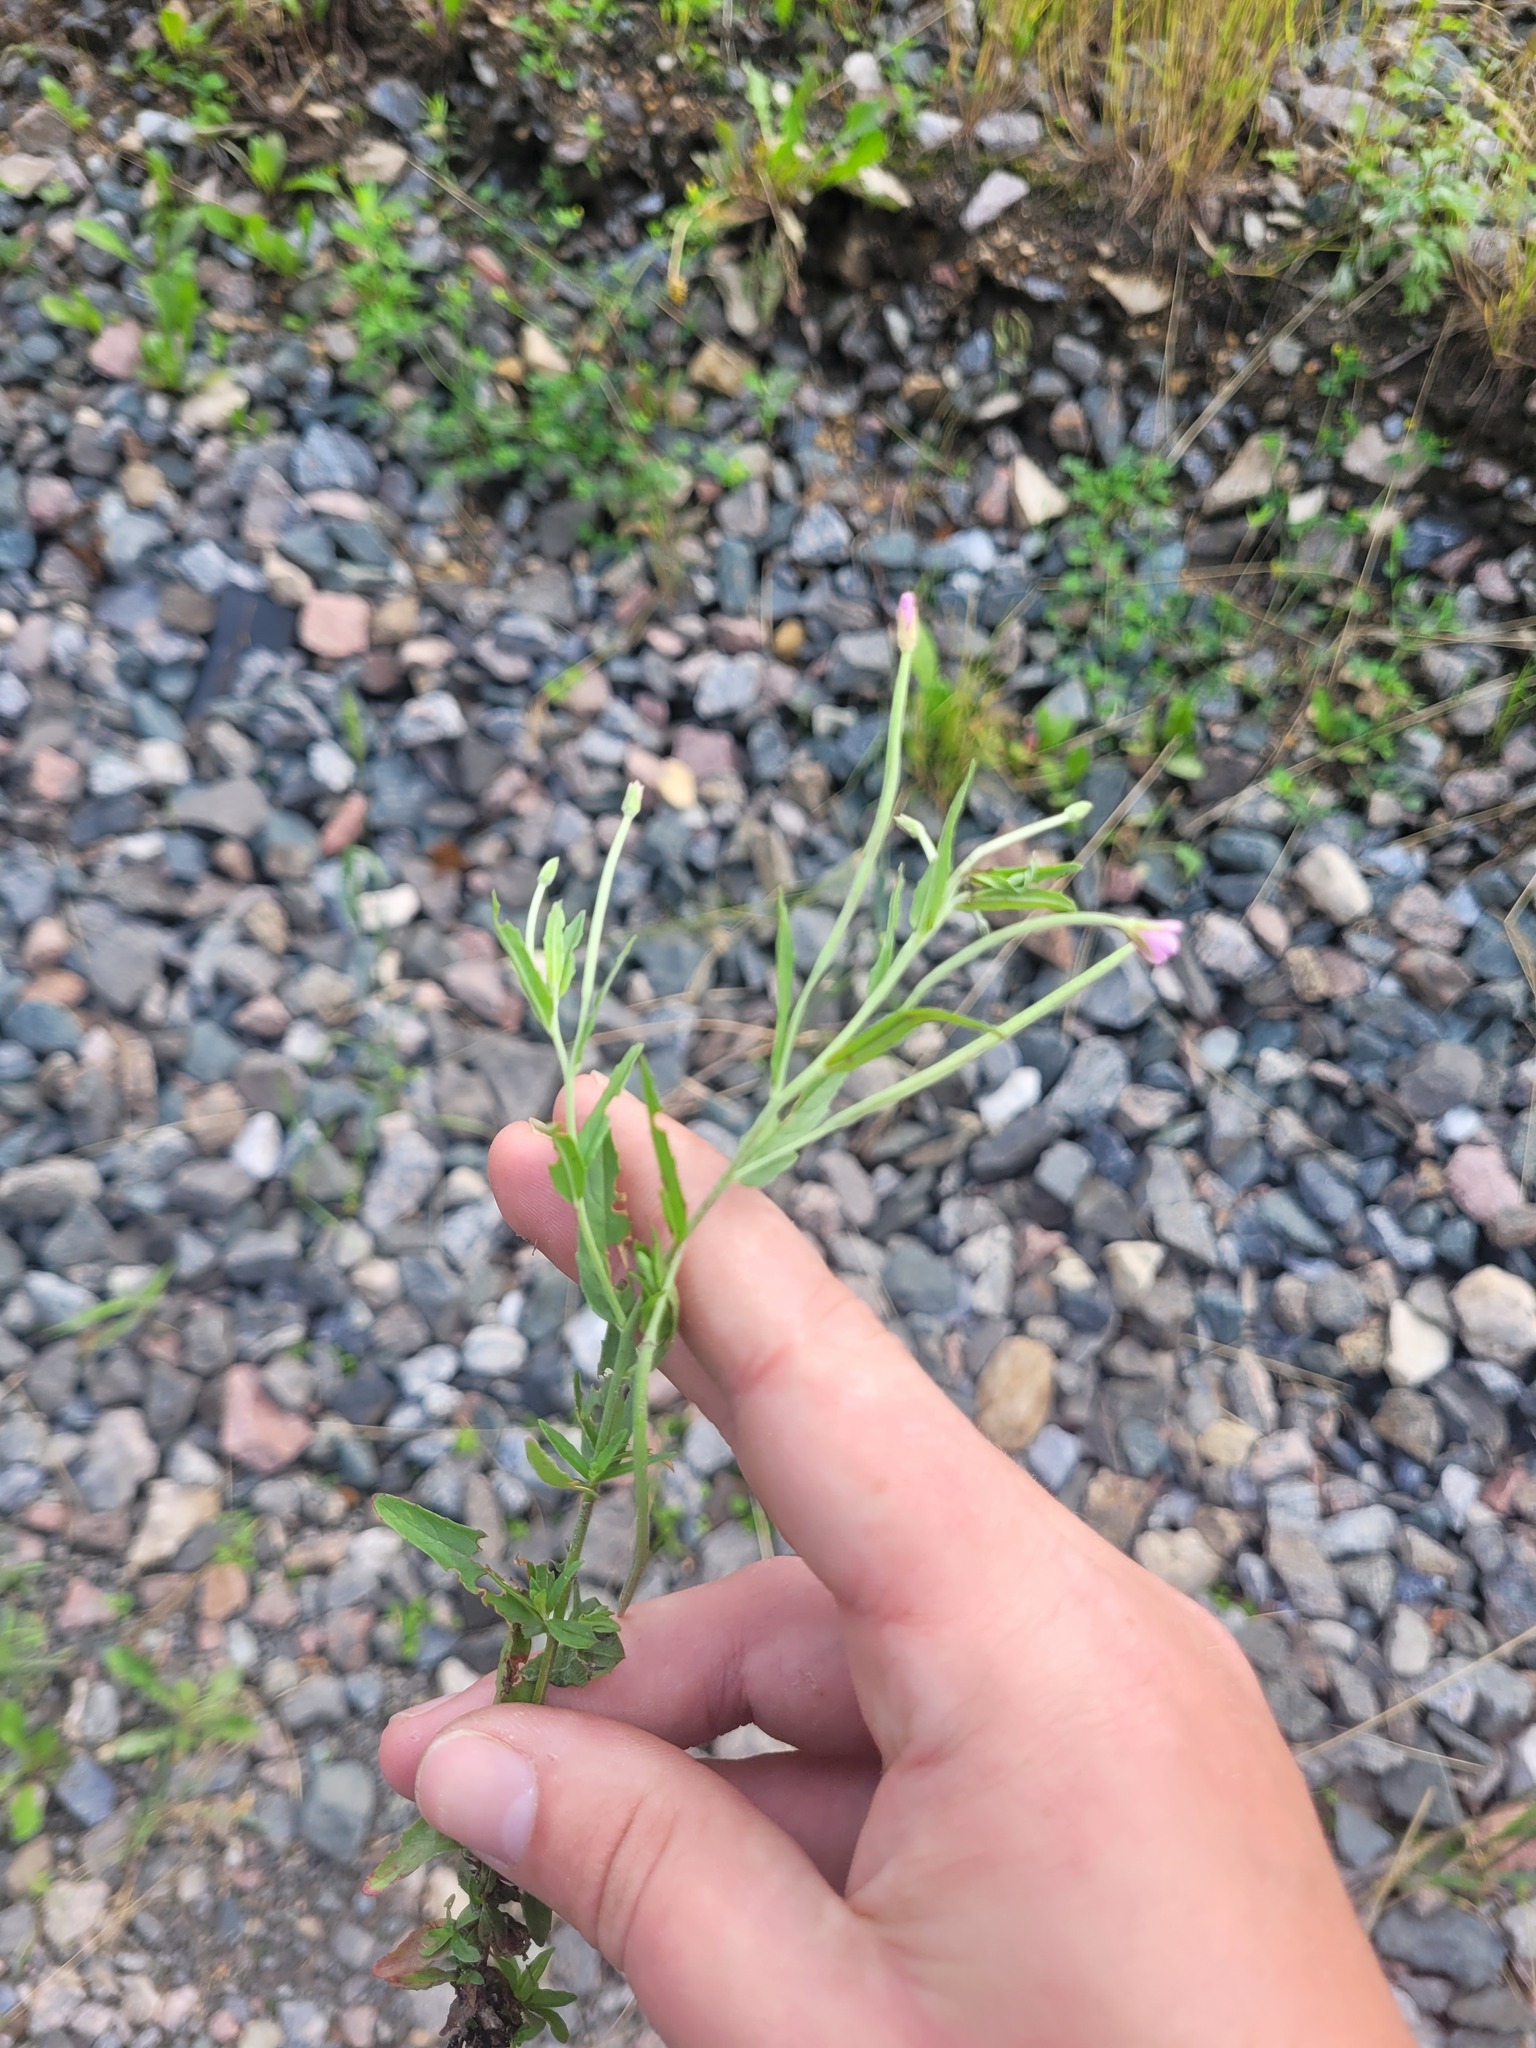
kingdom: Plantae
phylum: Tracheophyta
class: Magnoliopsida
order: Myrtales
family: Onagraceae
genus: Epilobium
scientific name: Epilobium lamyi
